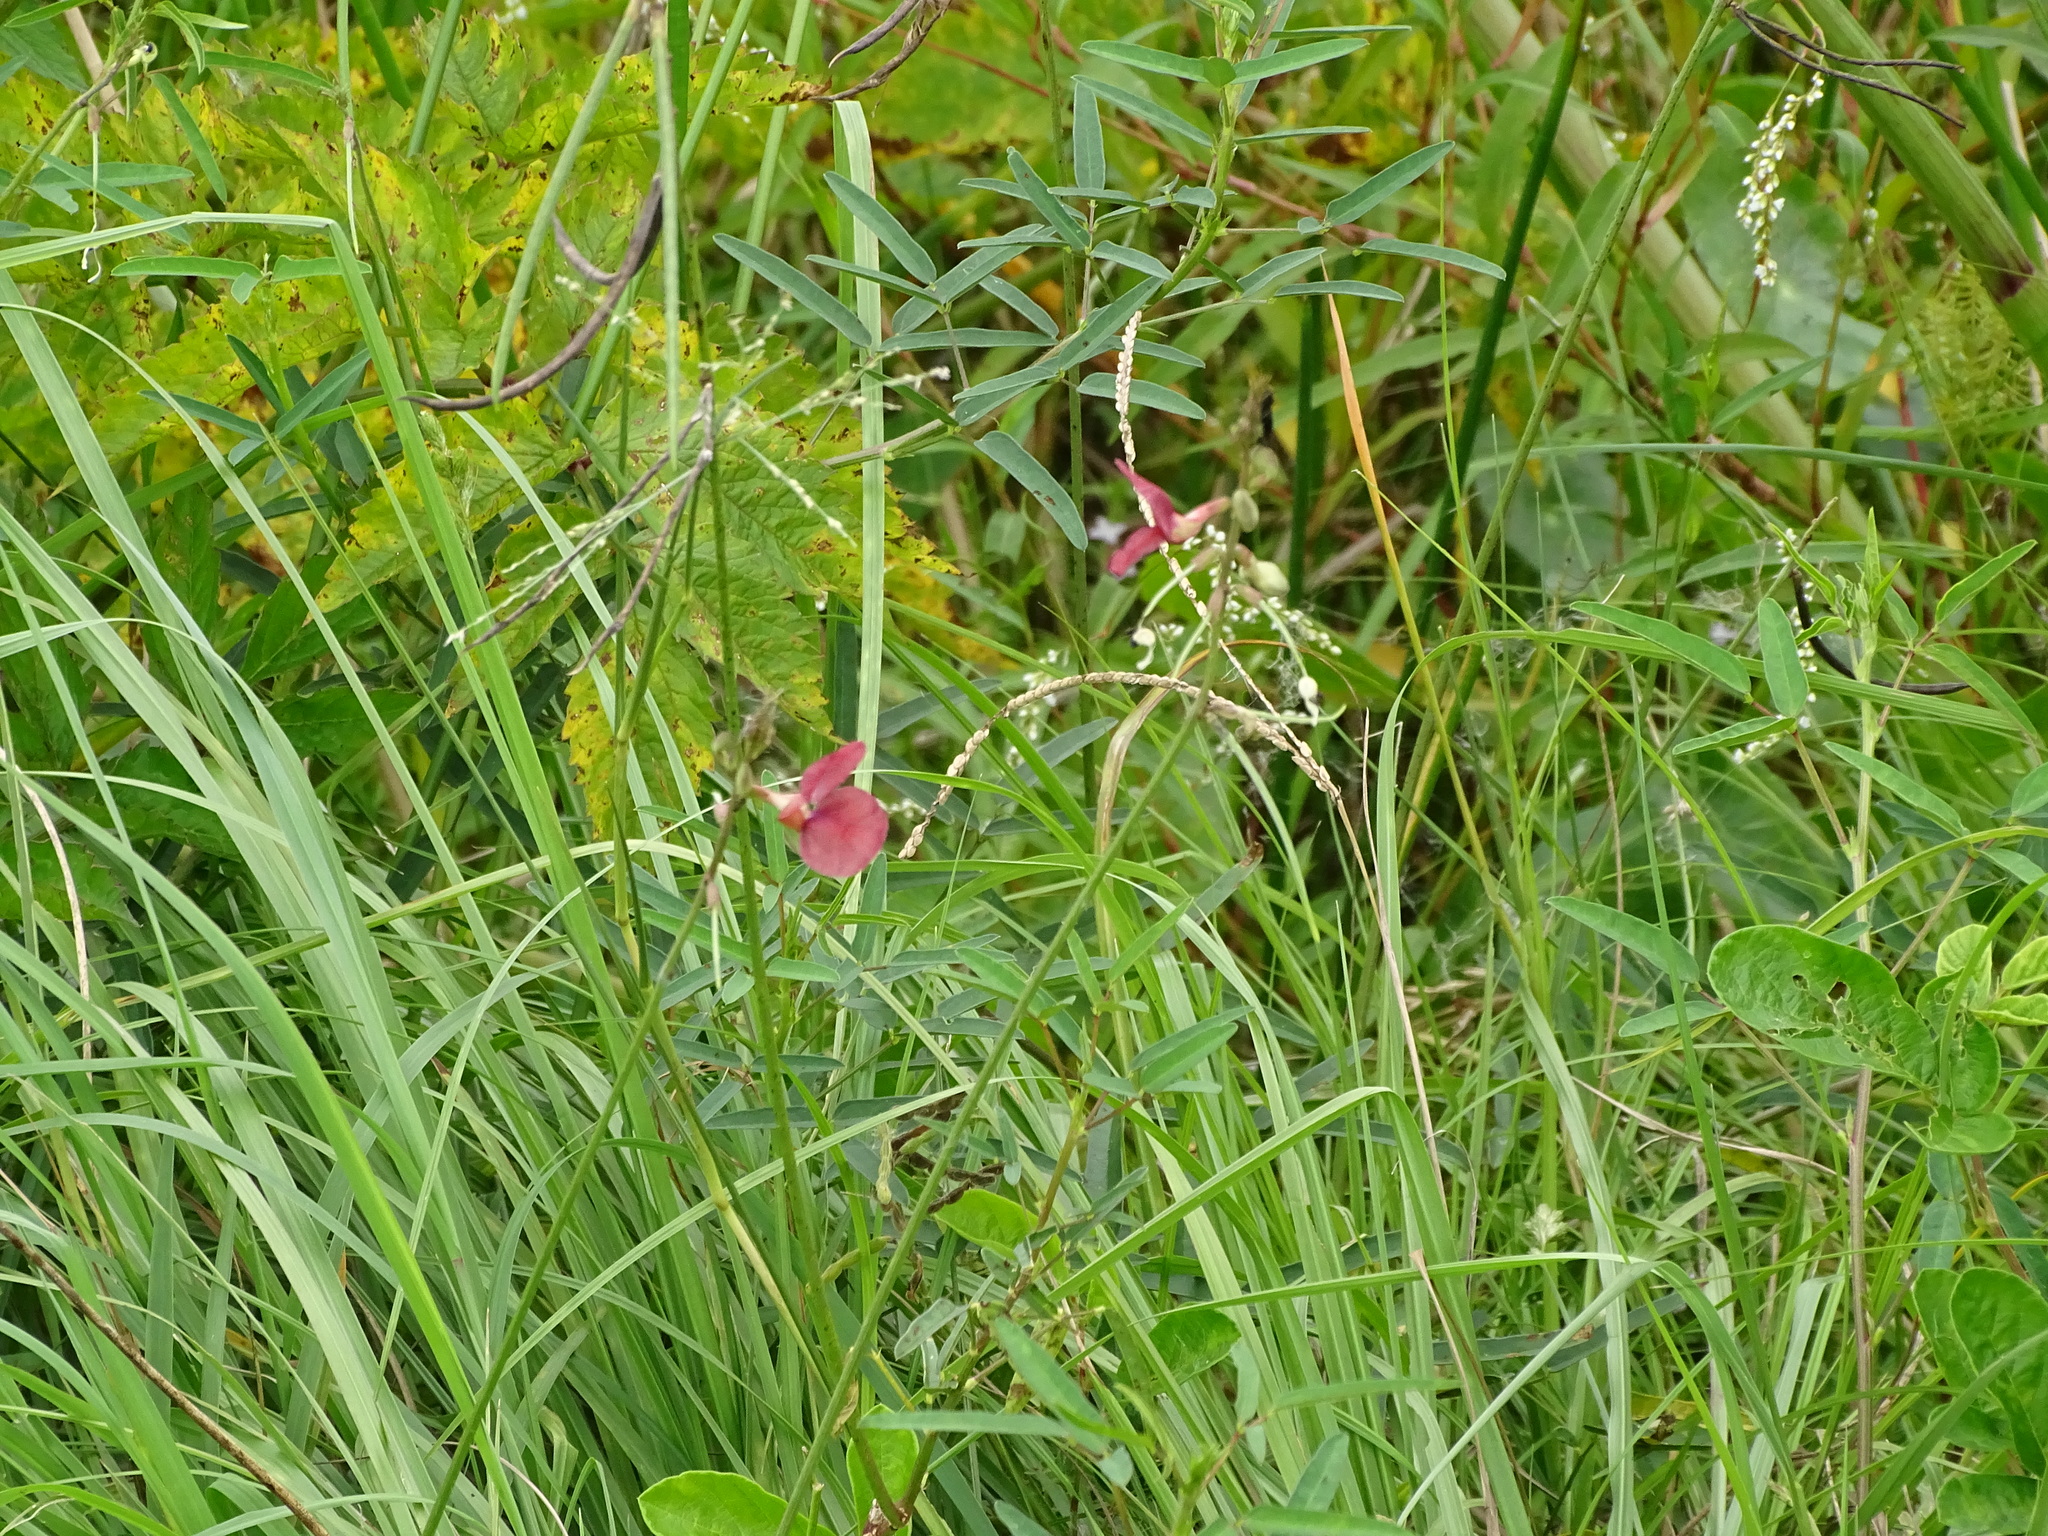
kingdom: Plantae
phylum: Tracheophyta
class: Magnoliopsida
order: Fabales
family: Fabaceae
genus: Macroptilium
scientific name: Macroptilium lathyroides
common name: Wild bushbean
